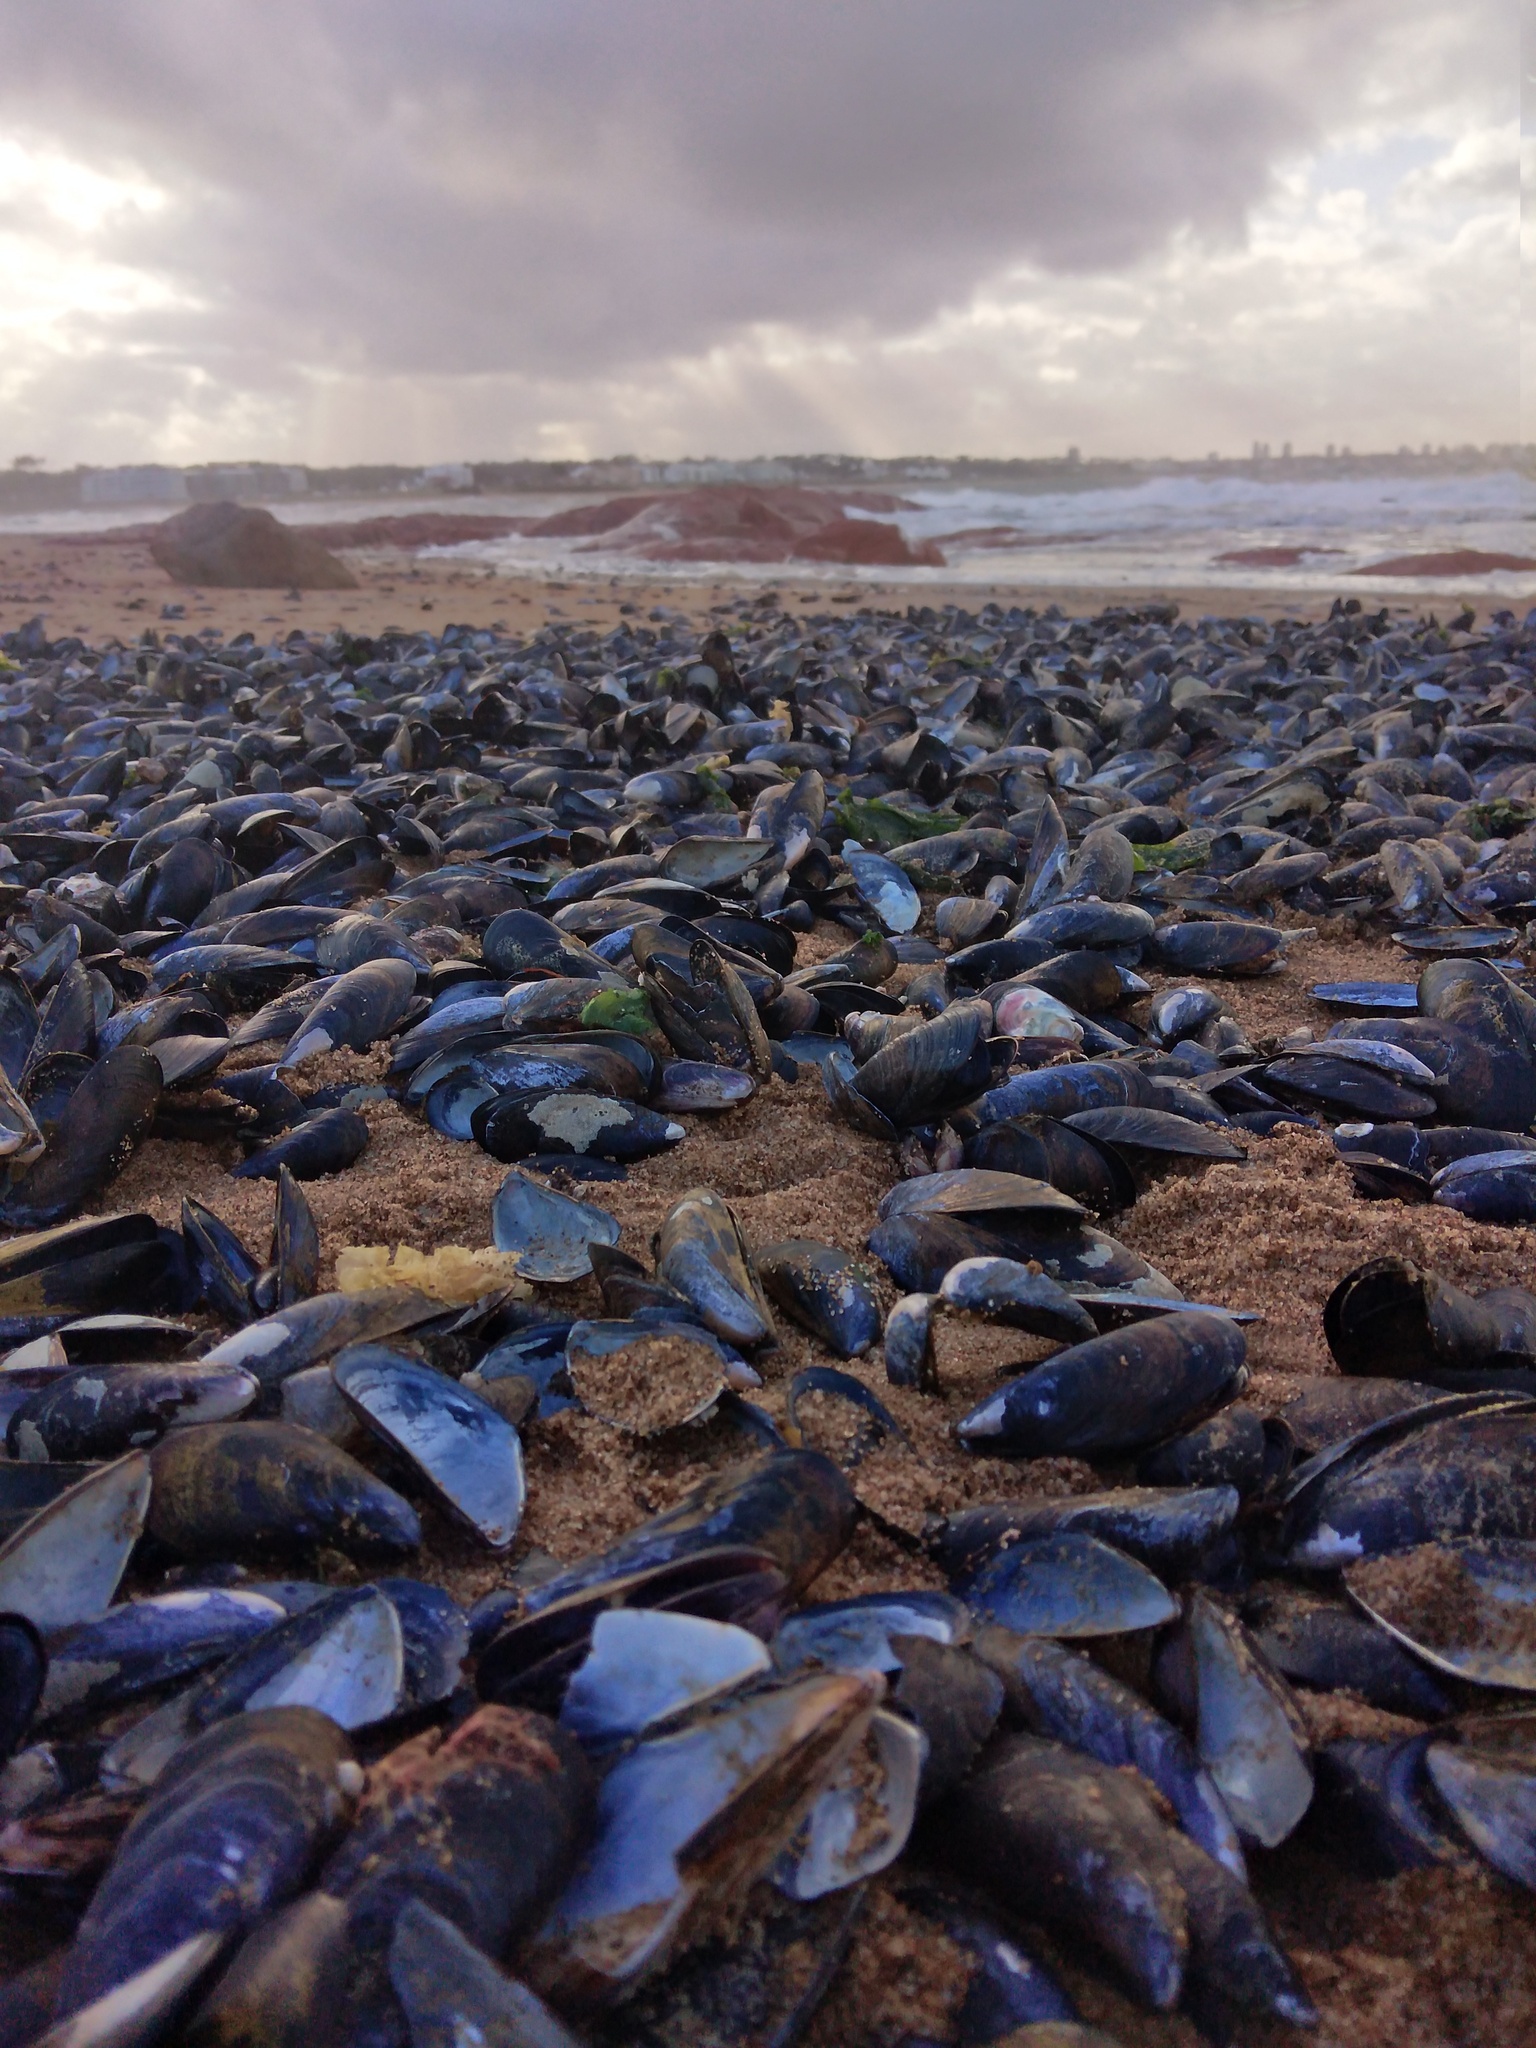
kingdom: Animalia
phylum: Mollusca
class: Bivalvia
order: Mytilida
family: Mytilidae
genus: Mytilus
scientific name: Mytilus platensis
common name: Chilean mussel
